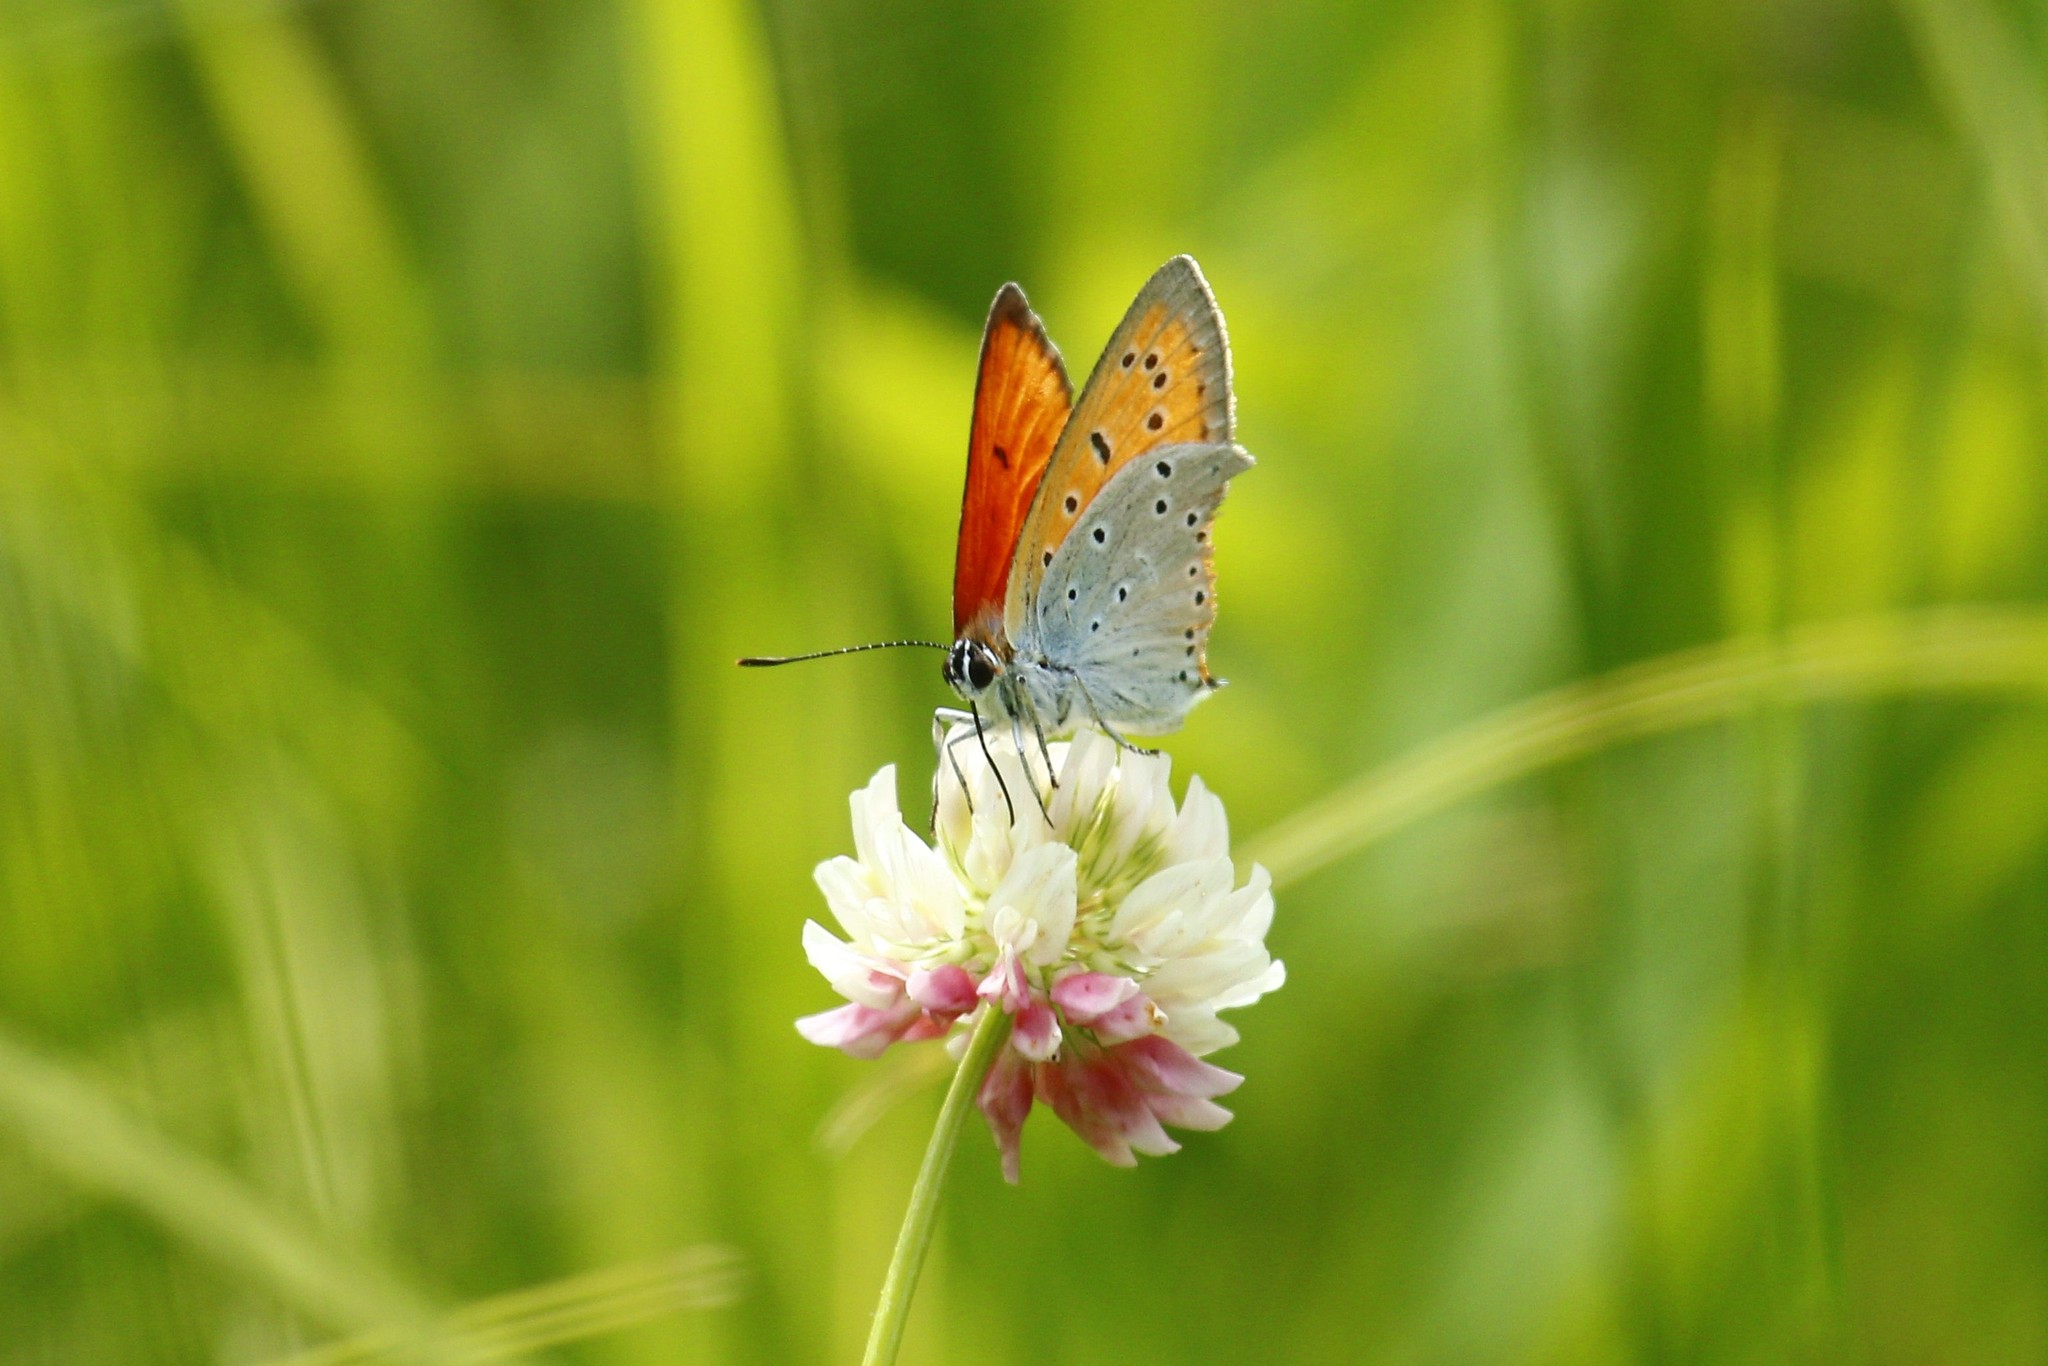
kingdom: Animalia
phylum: Arthropoda
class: Insecta
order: Lepidoptera
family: Lycaenidae
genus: Lycaena
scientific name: Lycaena dispar
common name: Large copper
